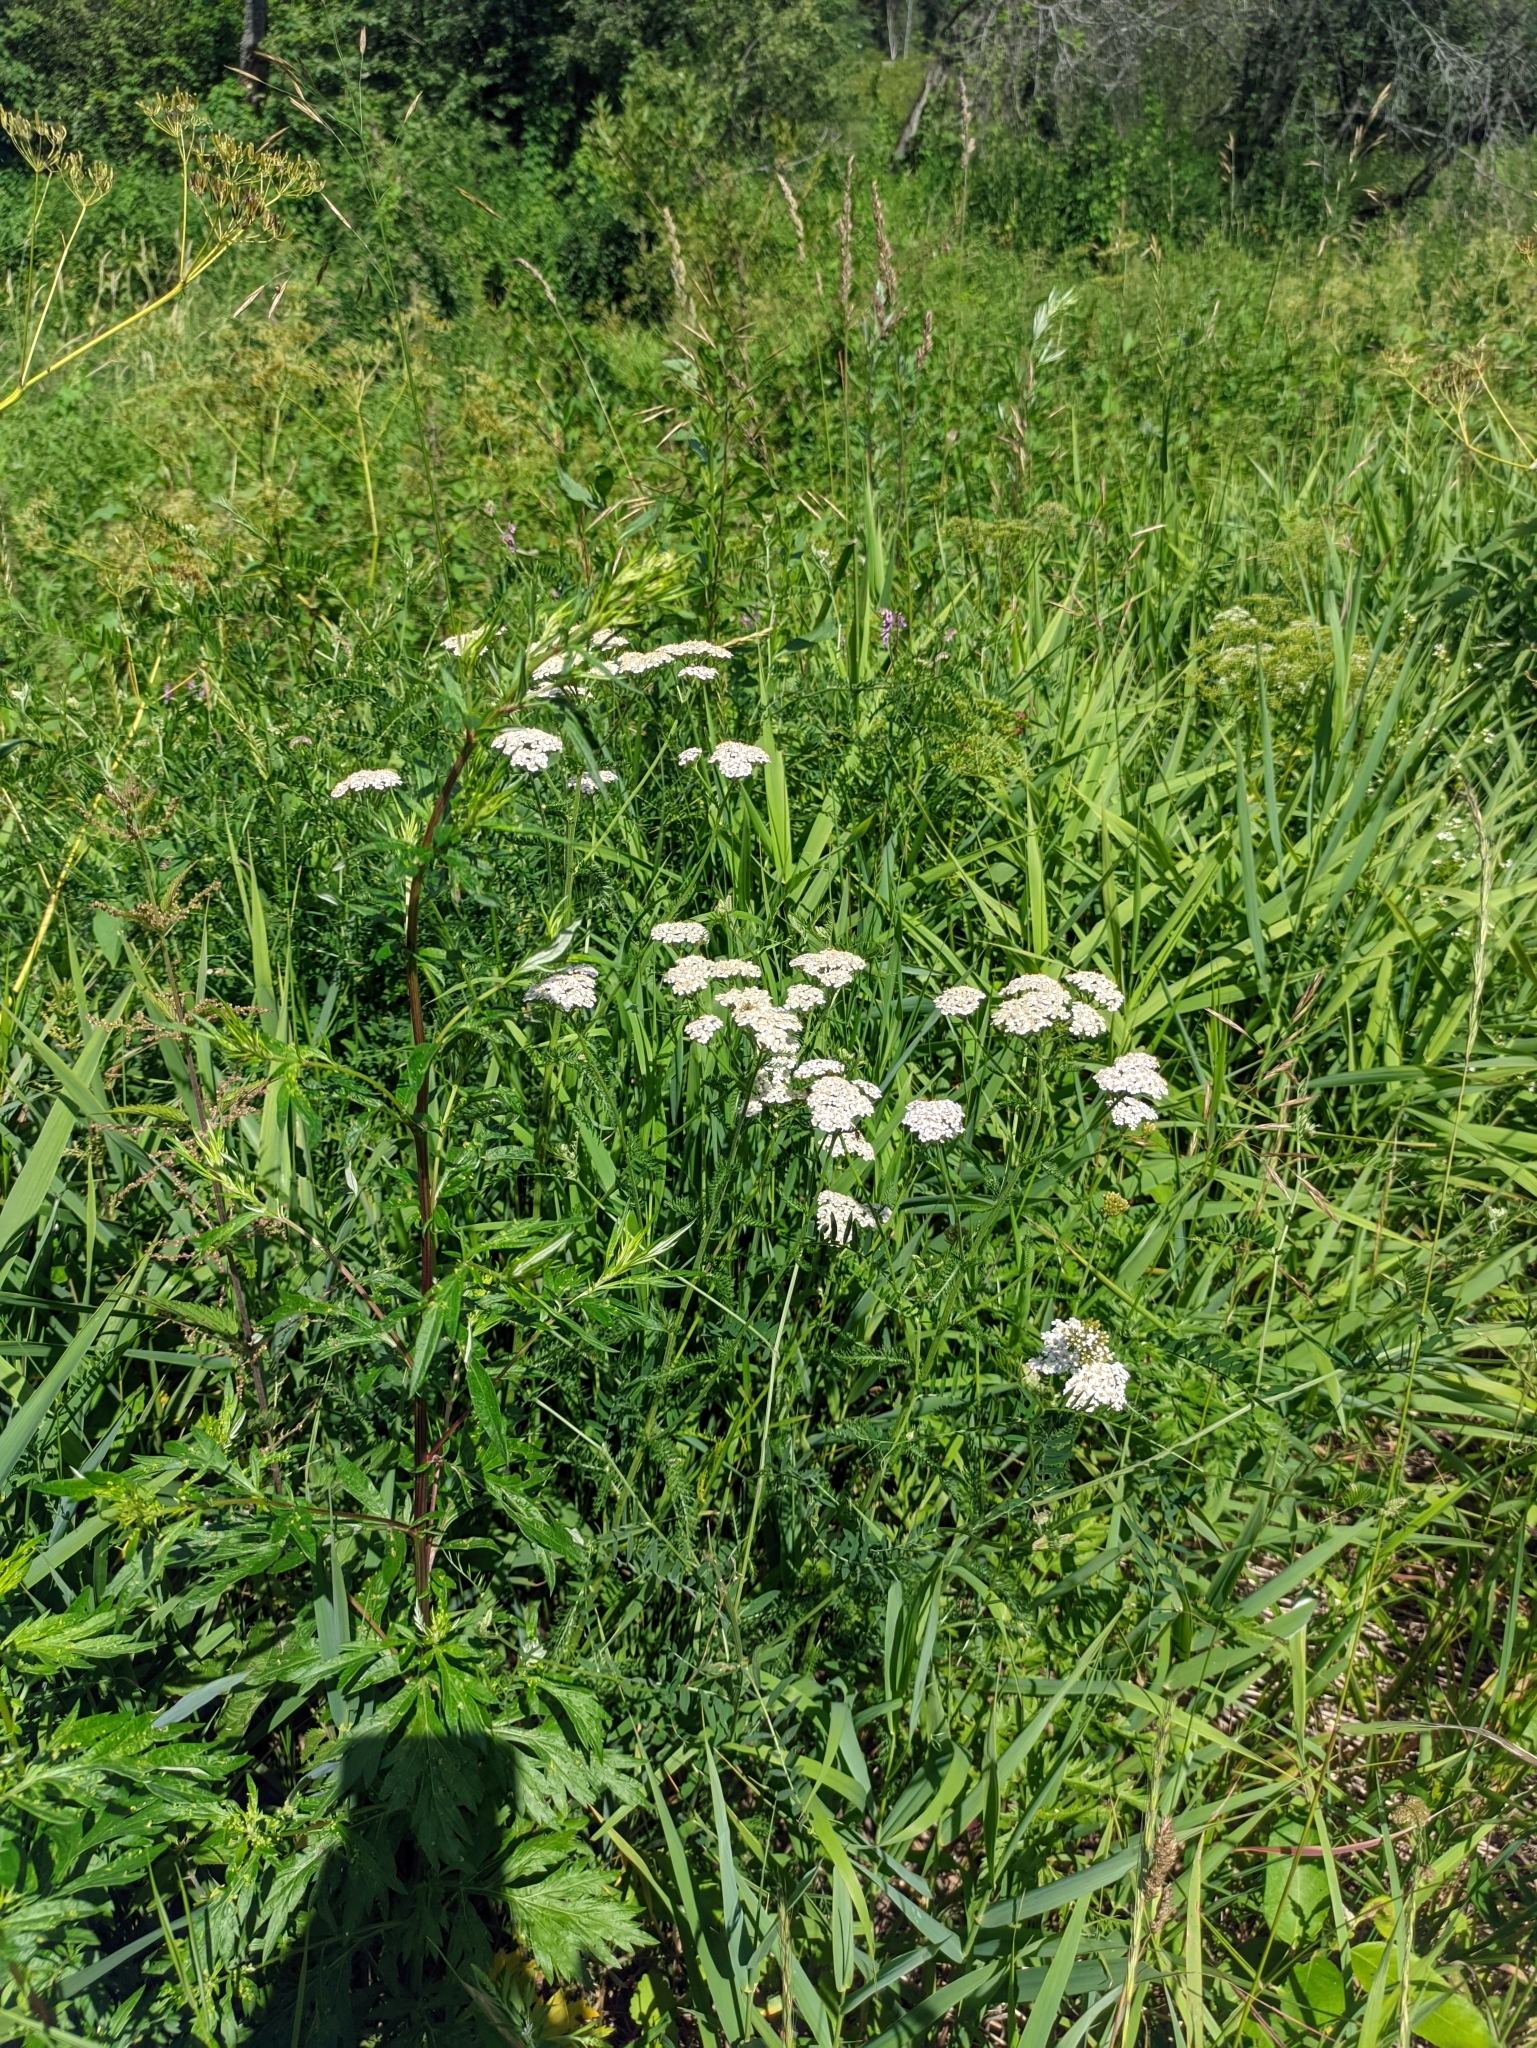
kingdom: Plantae
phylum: Tracheophyta
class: Magnoliopsida
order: Asterales
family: Asteraceae
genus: Achillea
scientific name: Achillea millefolium
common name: Yarrow
